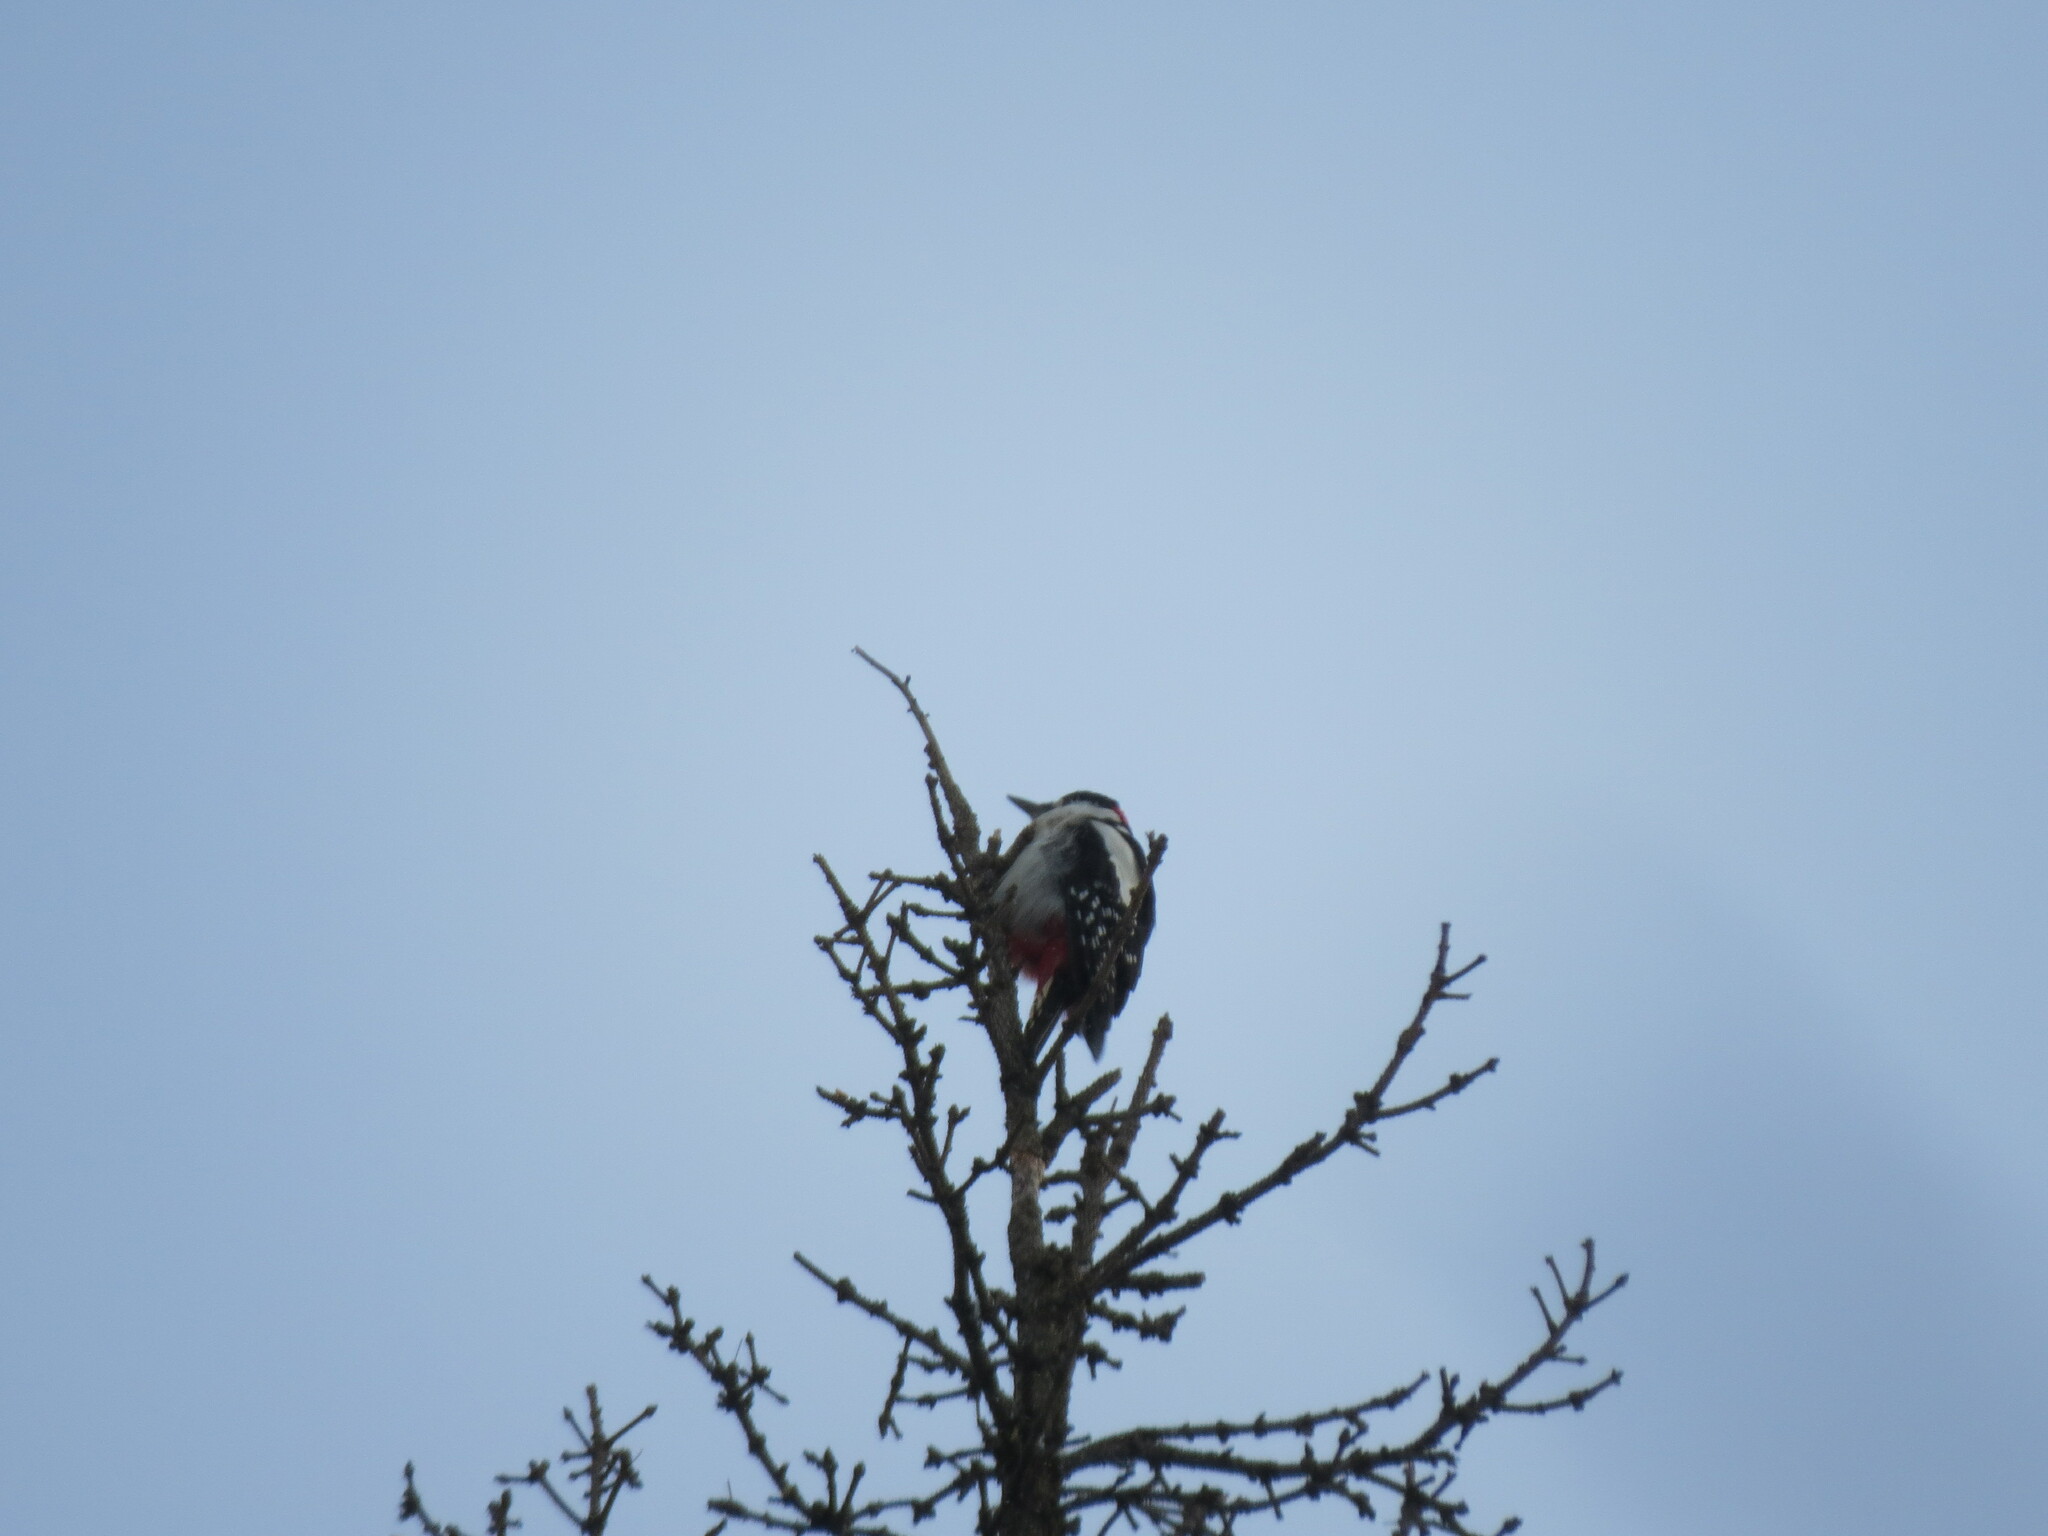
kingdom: Animalia
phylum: Chordata
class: Aves
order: Piciformes
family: Picidae
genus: Dendrocopos
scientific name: Dendrocopos major
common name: Great spotted woodpecker
